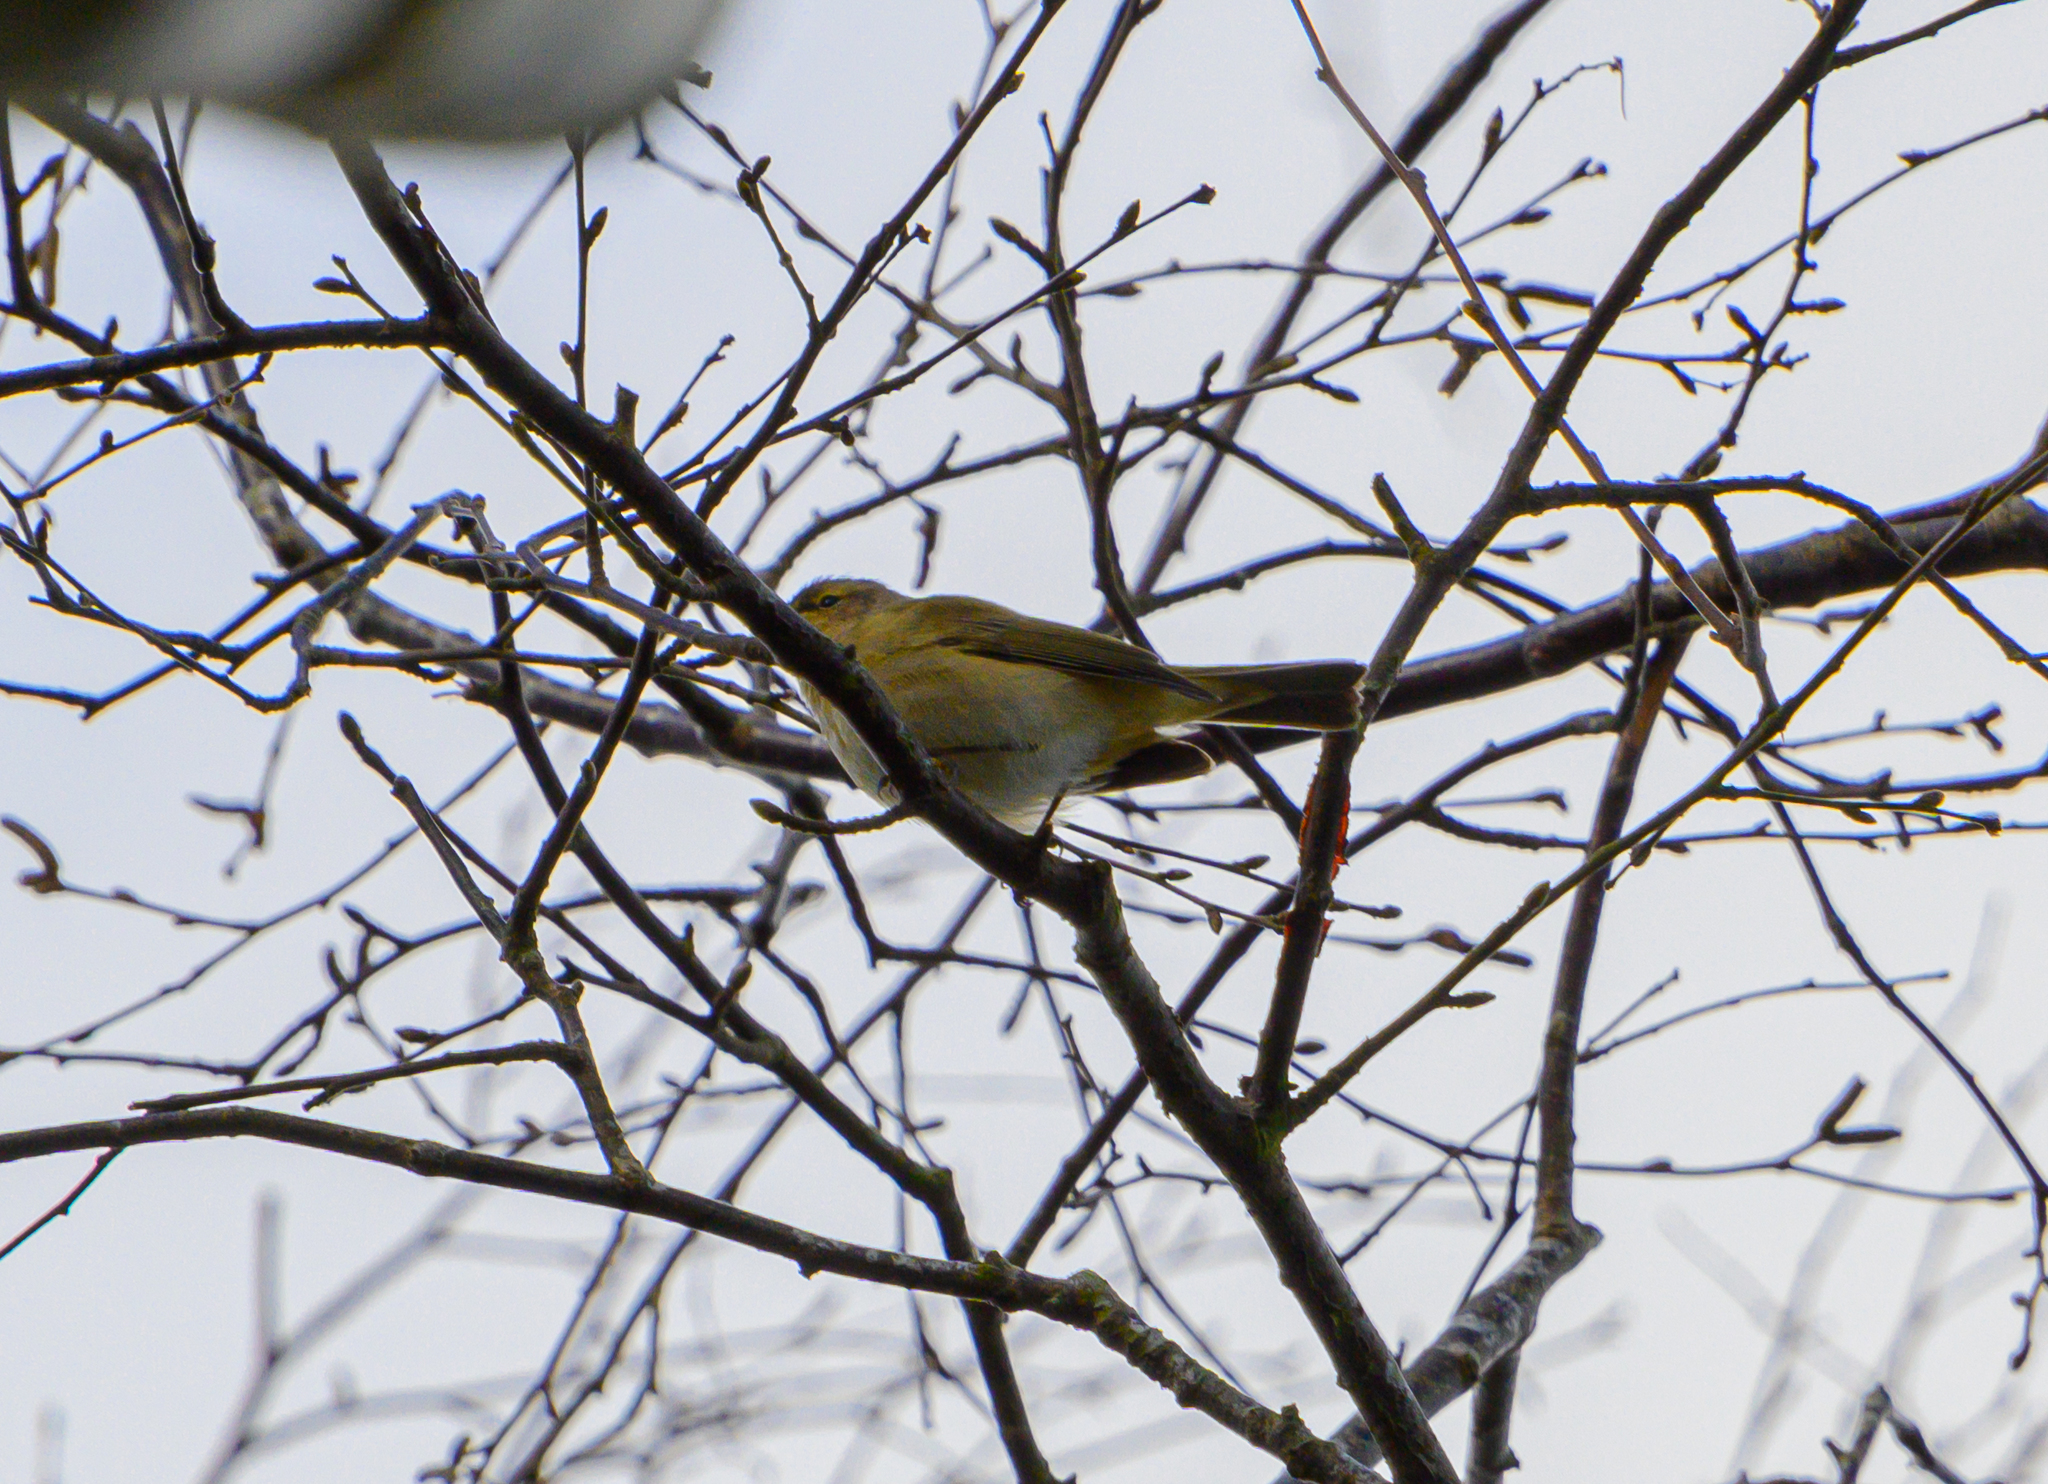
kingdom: Animalia
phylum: Chordata
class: Aves
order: Passeriformes
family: Phylloscopidae
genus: Phylloscopus
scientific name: Phylloscopus collybita
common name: Common chiffchaff
